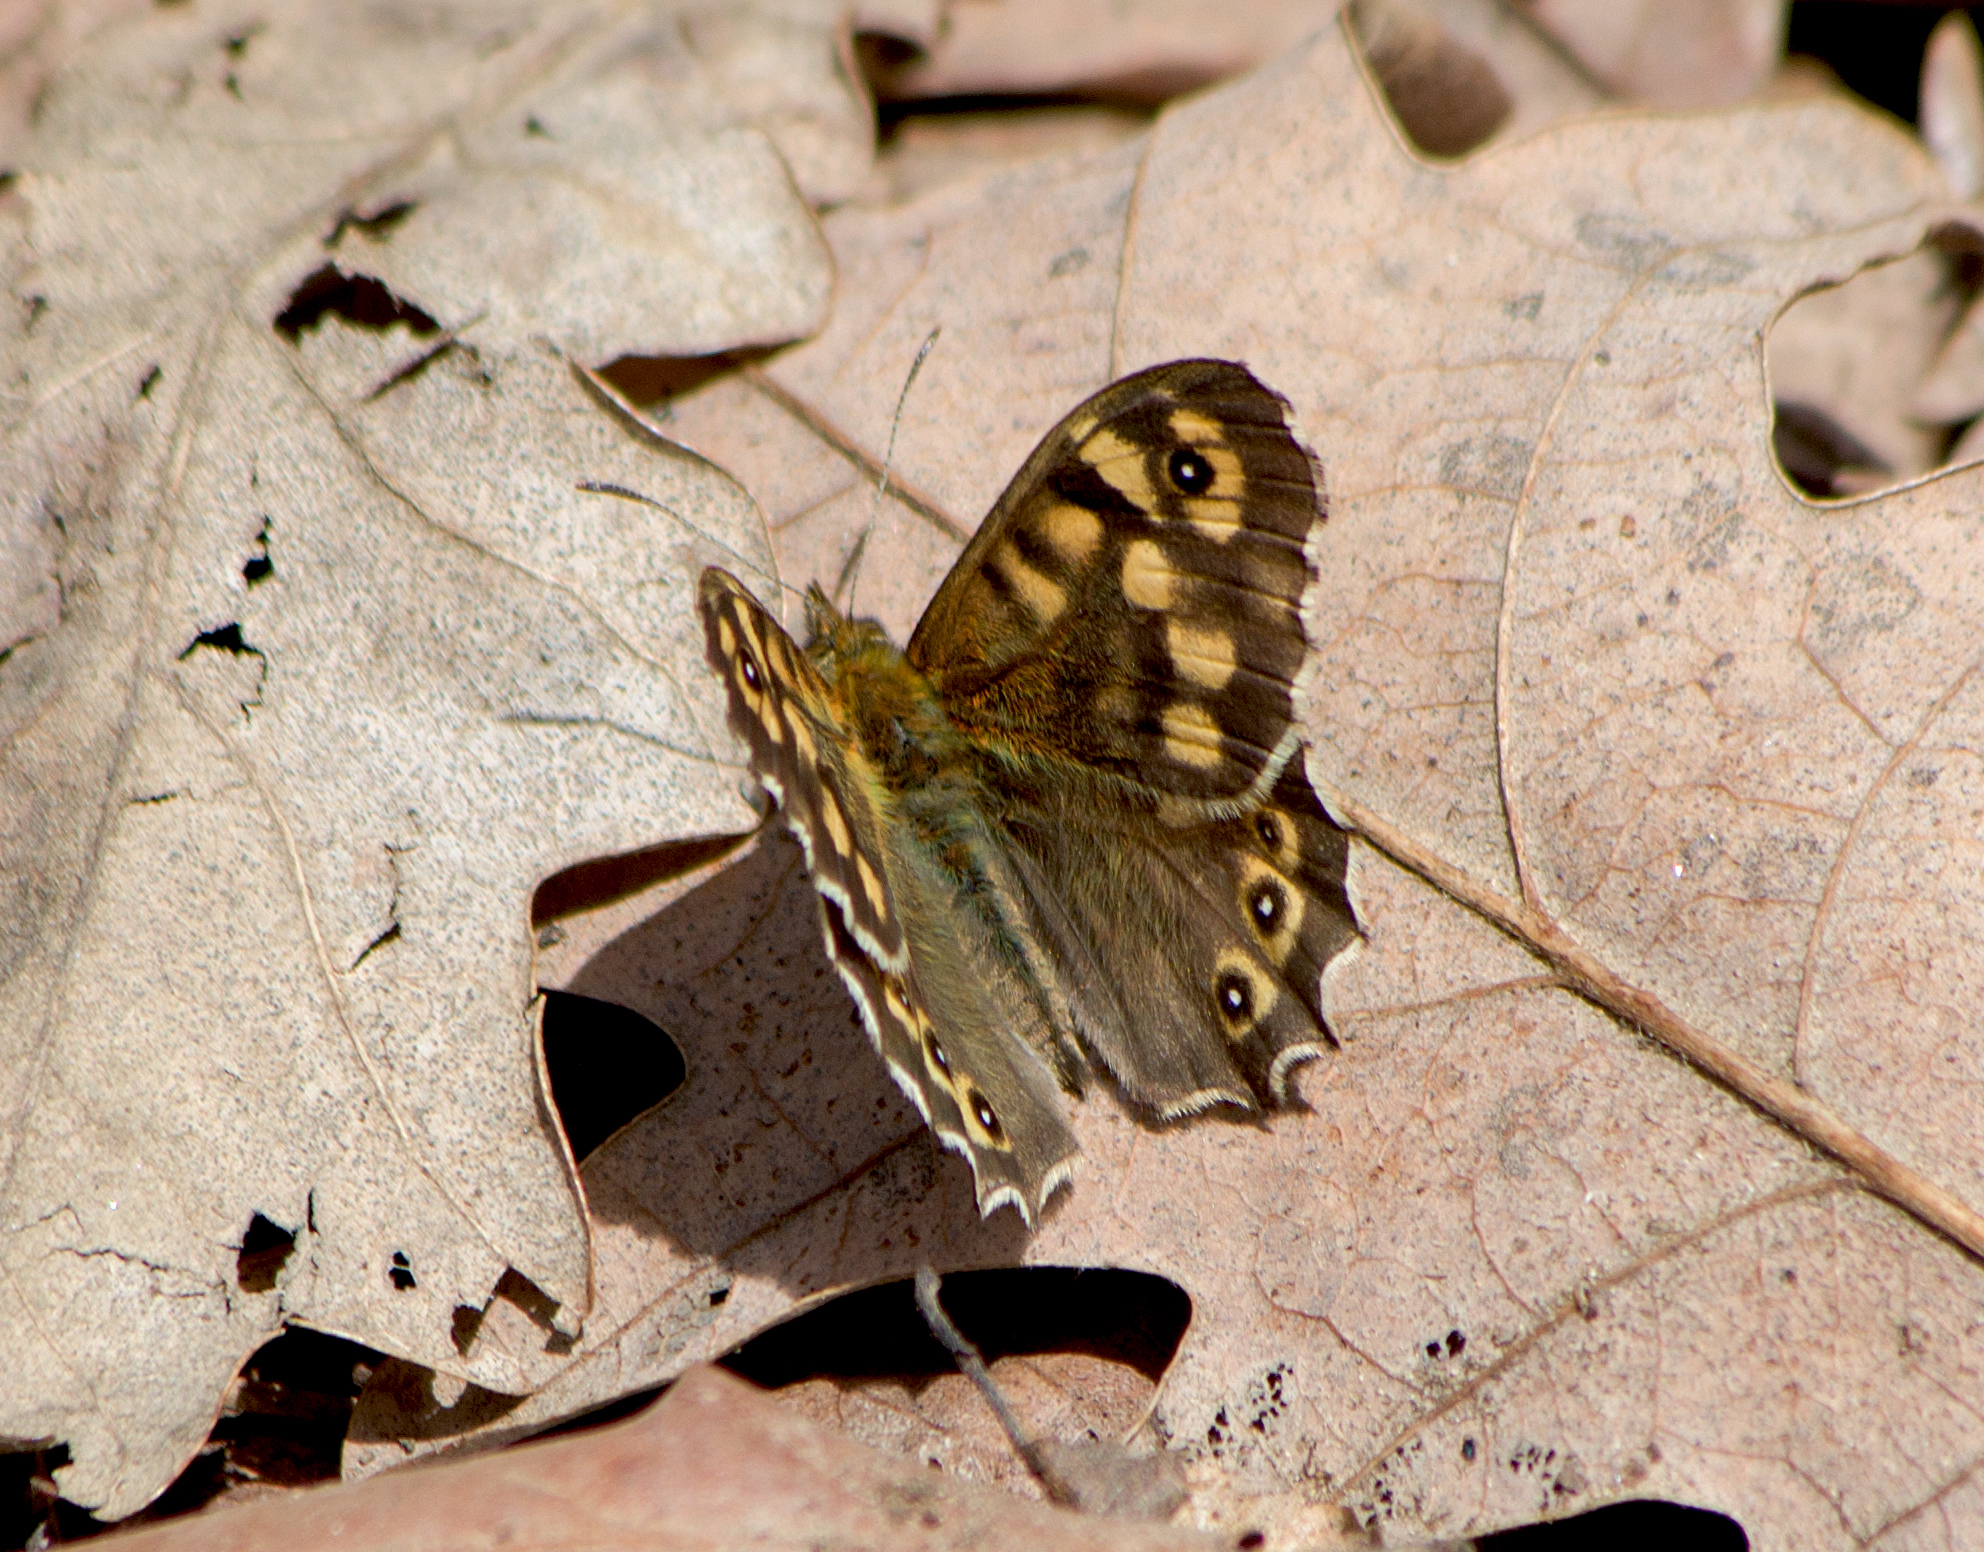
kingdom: Animalia
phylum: Arthropoda
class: Insecta
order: Lepidoptera
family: Nymphalidae
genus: Pararge
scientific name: Pararge aegeria
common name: Speckled wood
